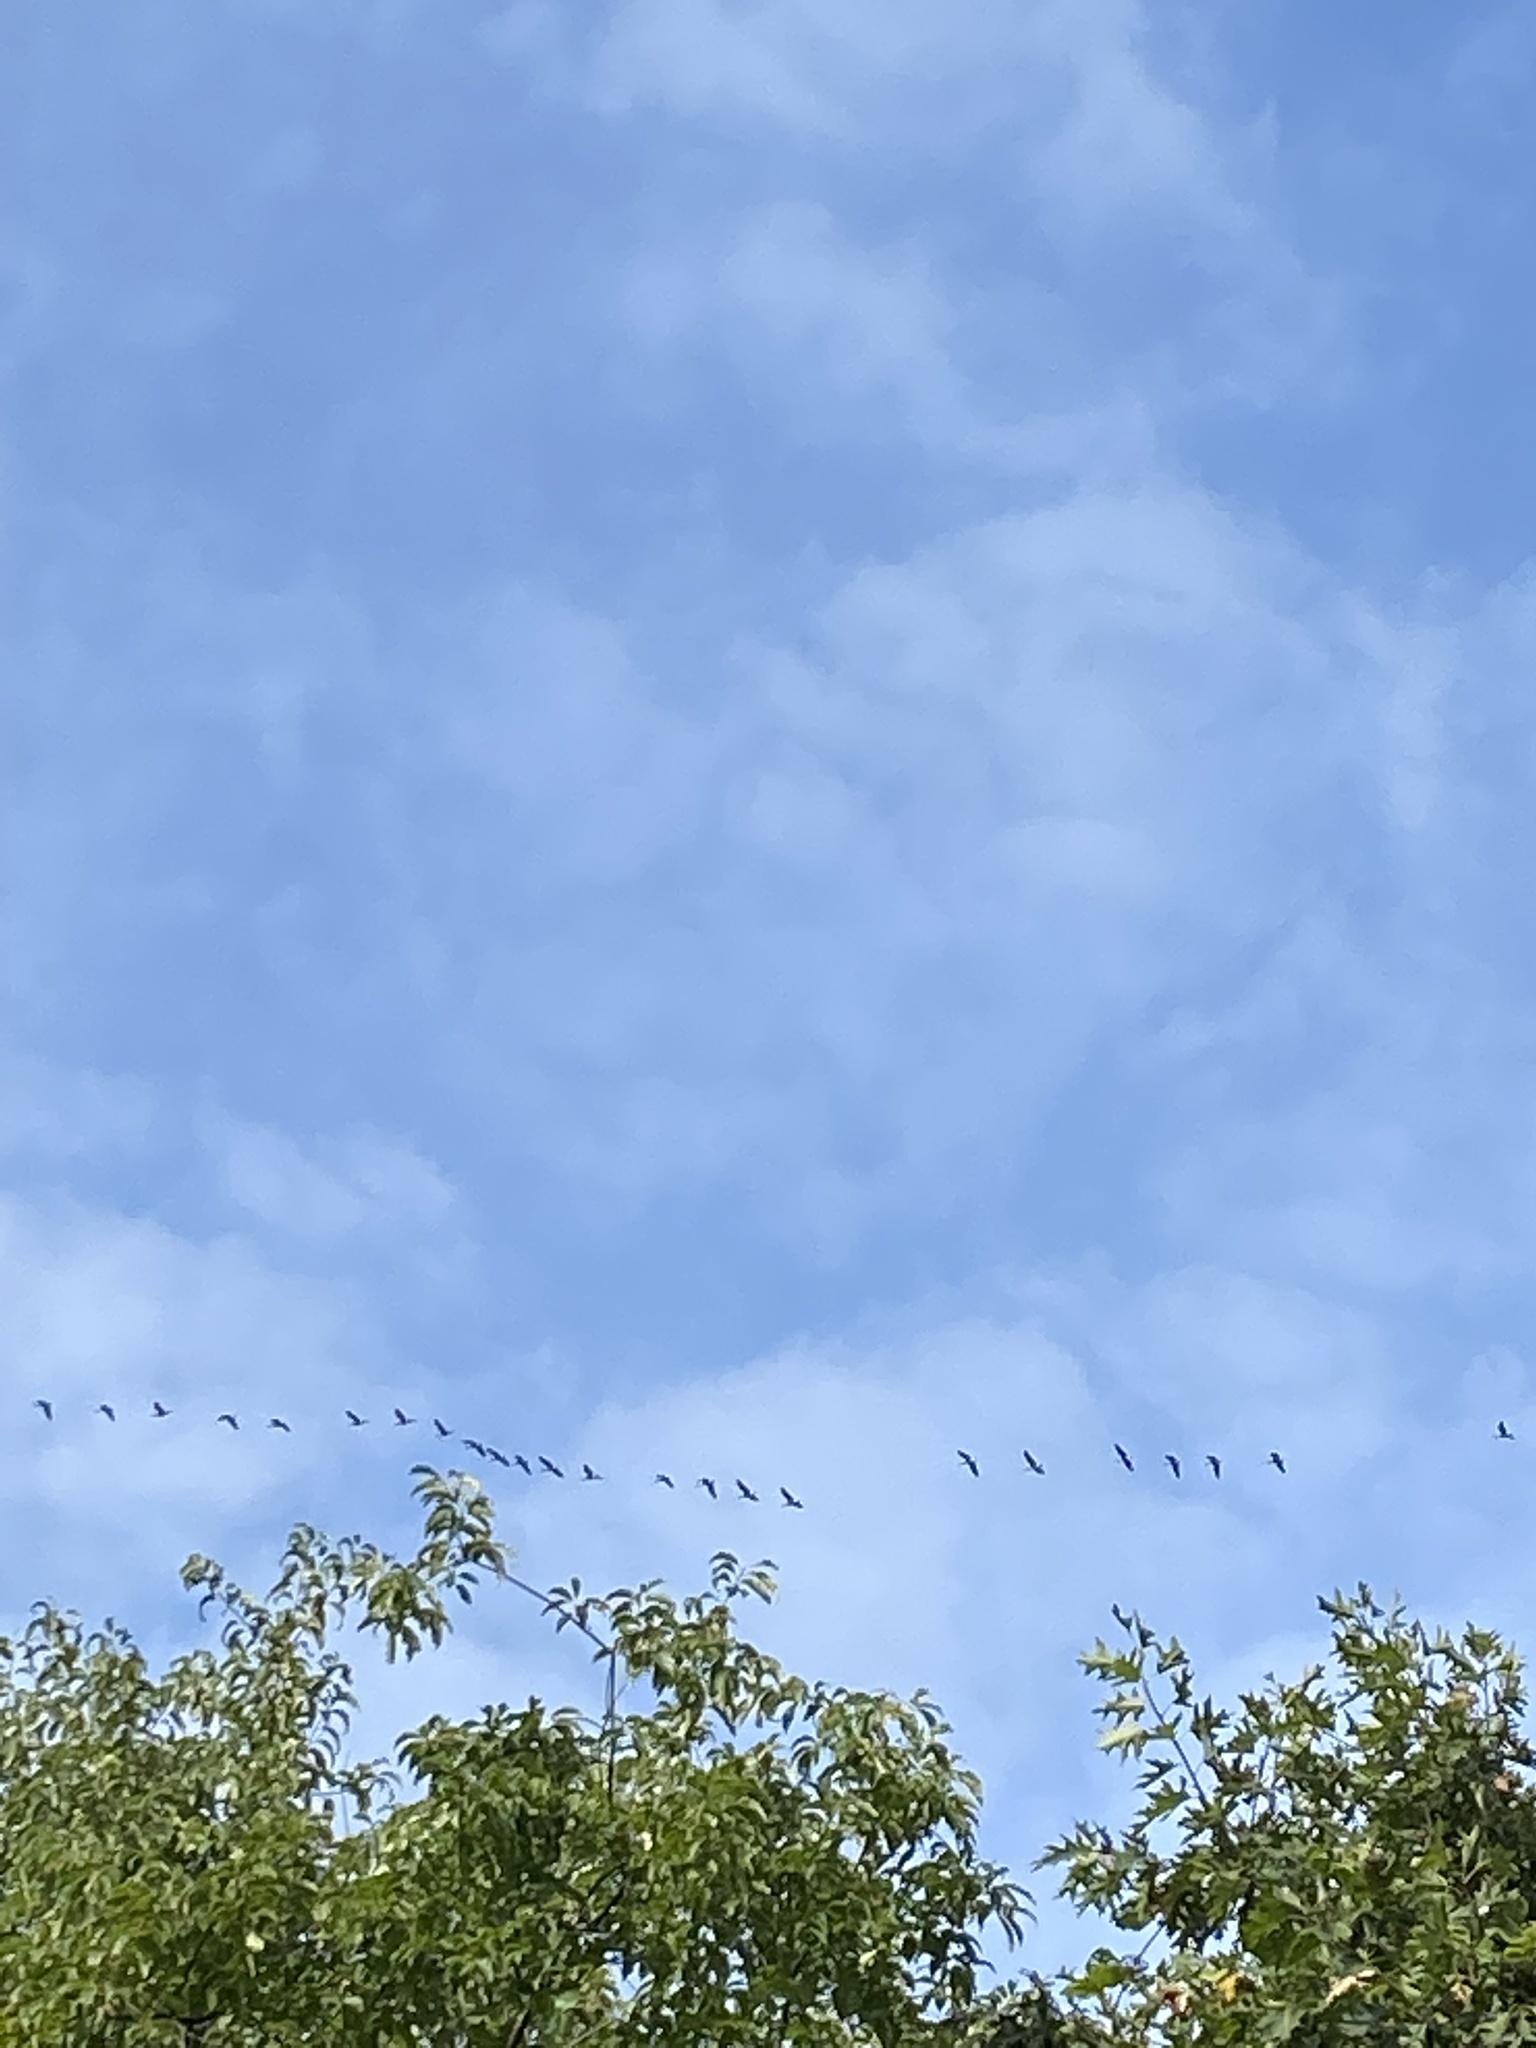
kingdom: Animalia
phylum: Chordata
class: Aves
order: Anseriformes
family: Anatidae
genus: Branta
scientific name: Branta canadensis
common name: Canada goose
